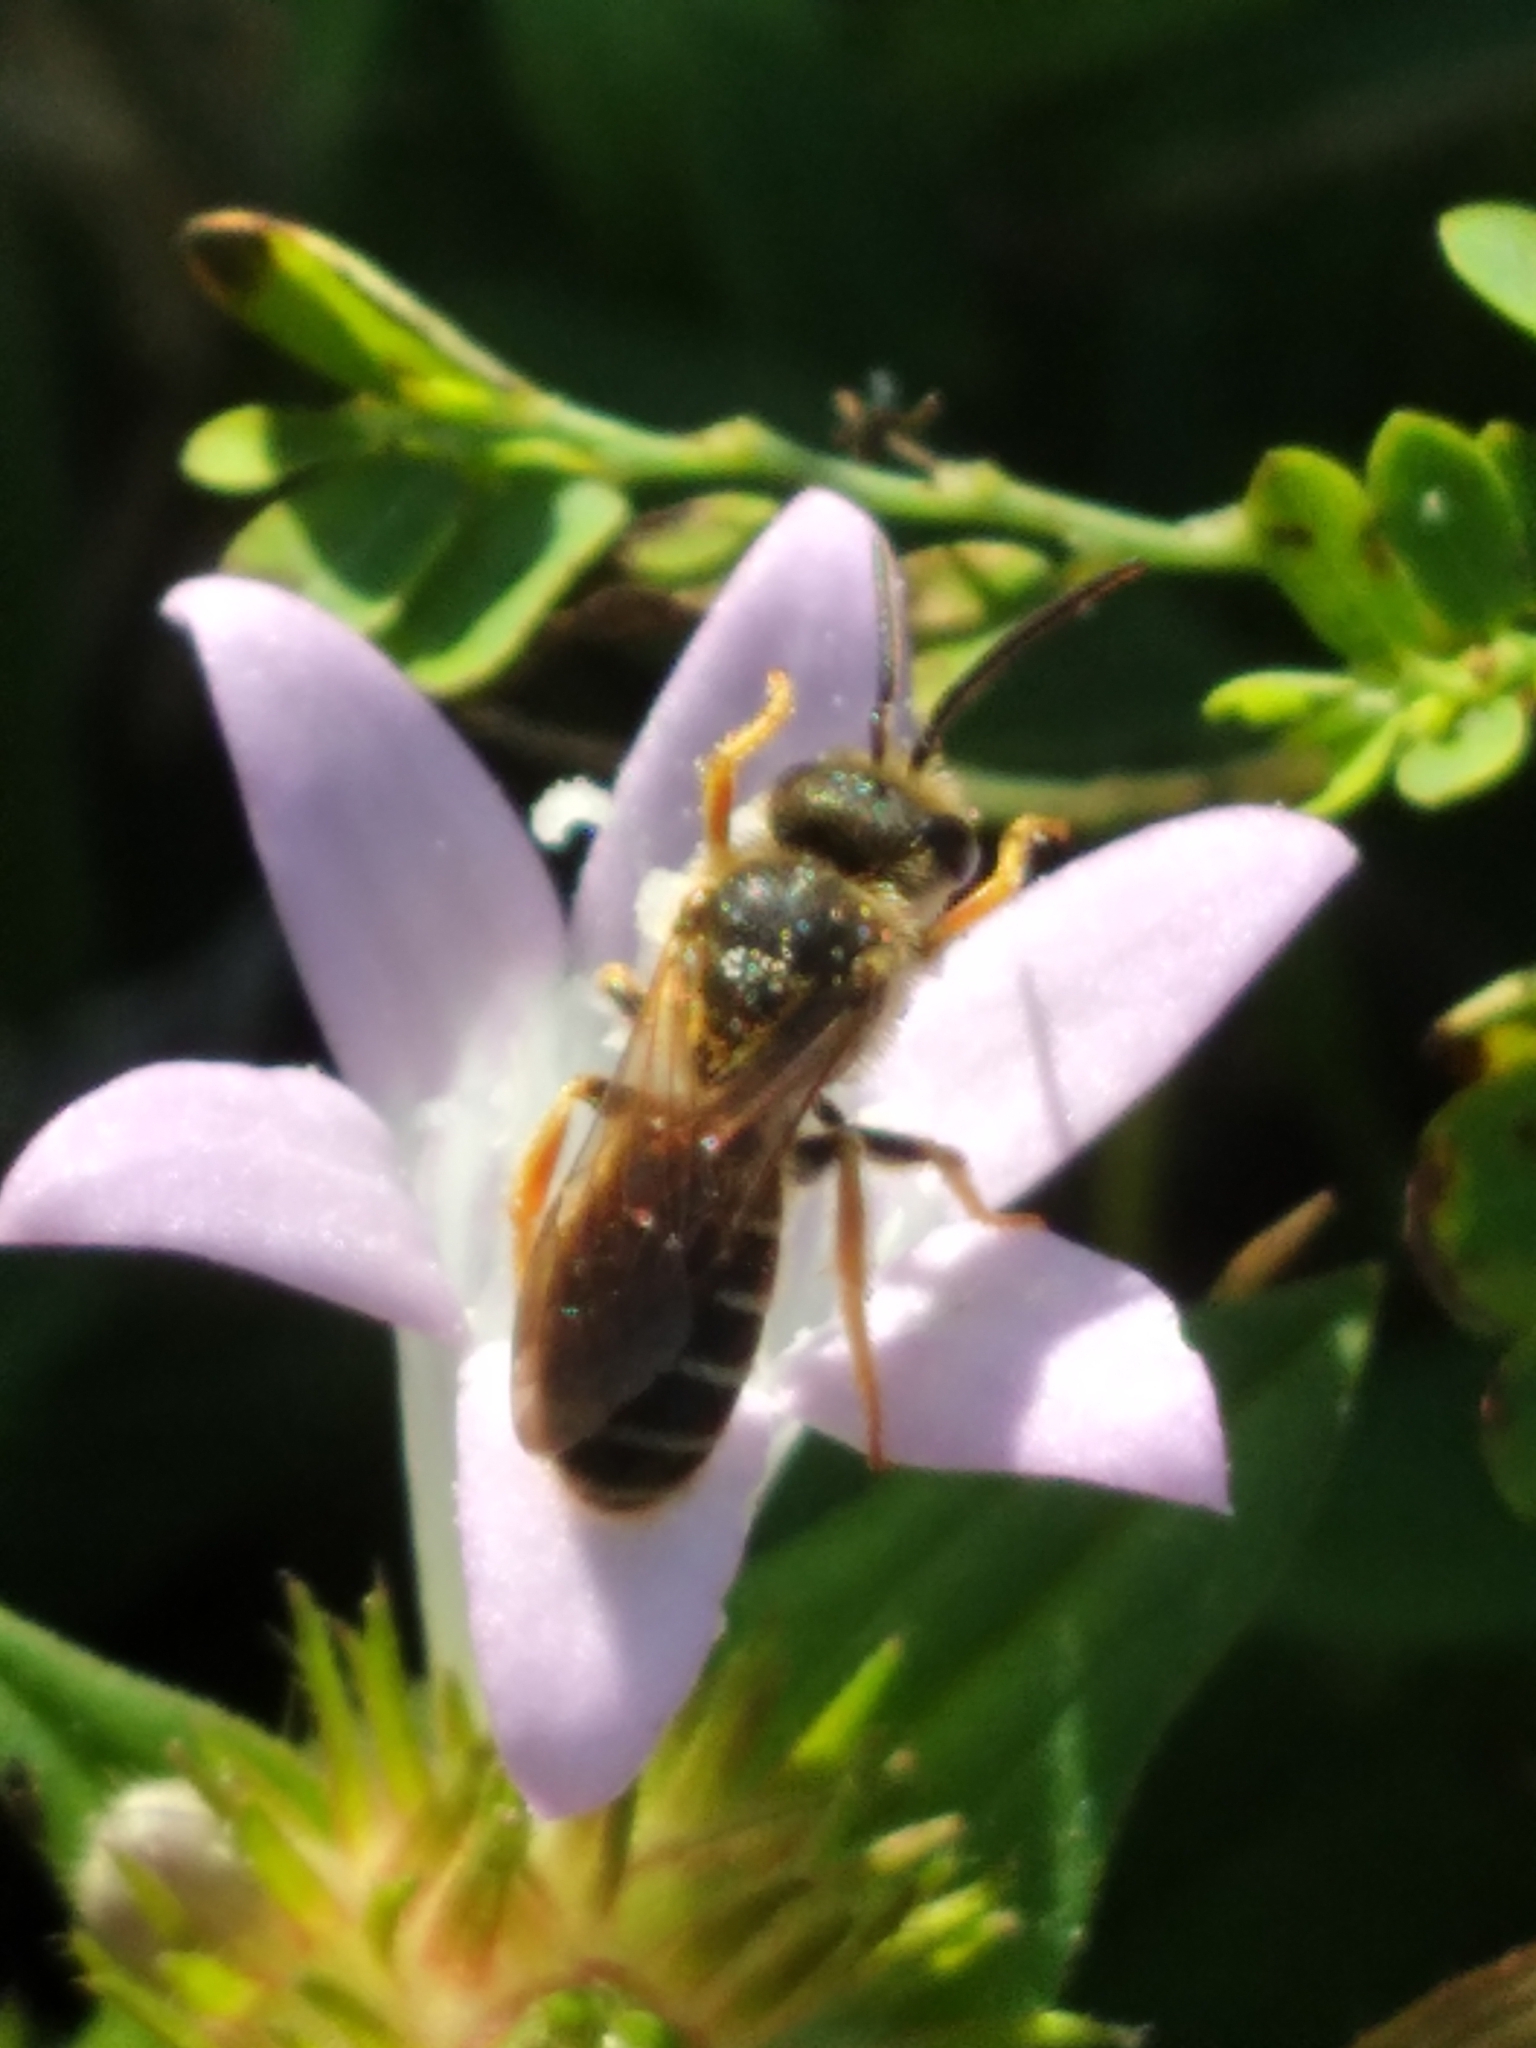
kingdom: Animalia
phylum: Arthropoda
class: Insecta
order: Hymenoptera
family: Halictidae
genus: Halictus
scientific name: Halictus poeyi
